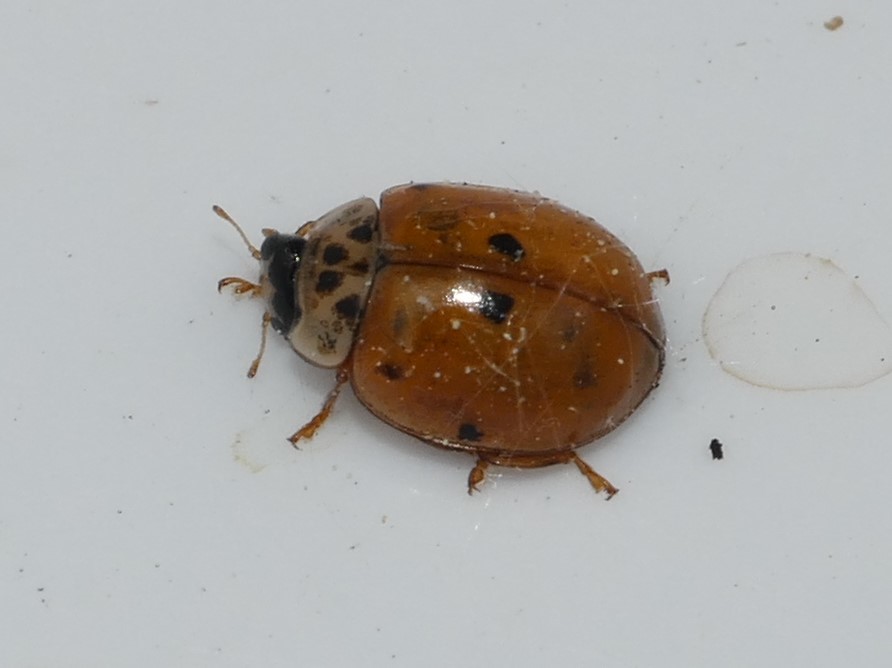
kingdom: Animalia
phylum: Arthropoda
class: Insecta
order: Coleoptera
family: Coccinellidae
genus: Adalia
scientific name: Adalia decempunctata
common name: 10-spot ladybird
